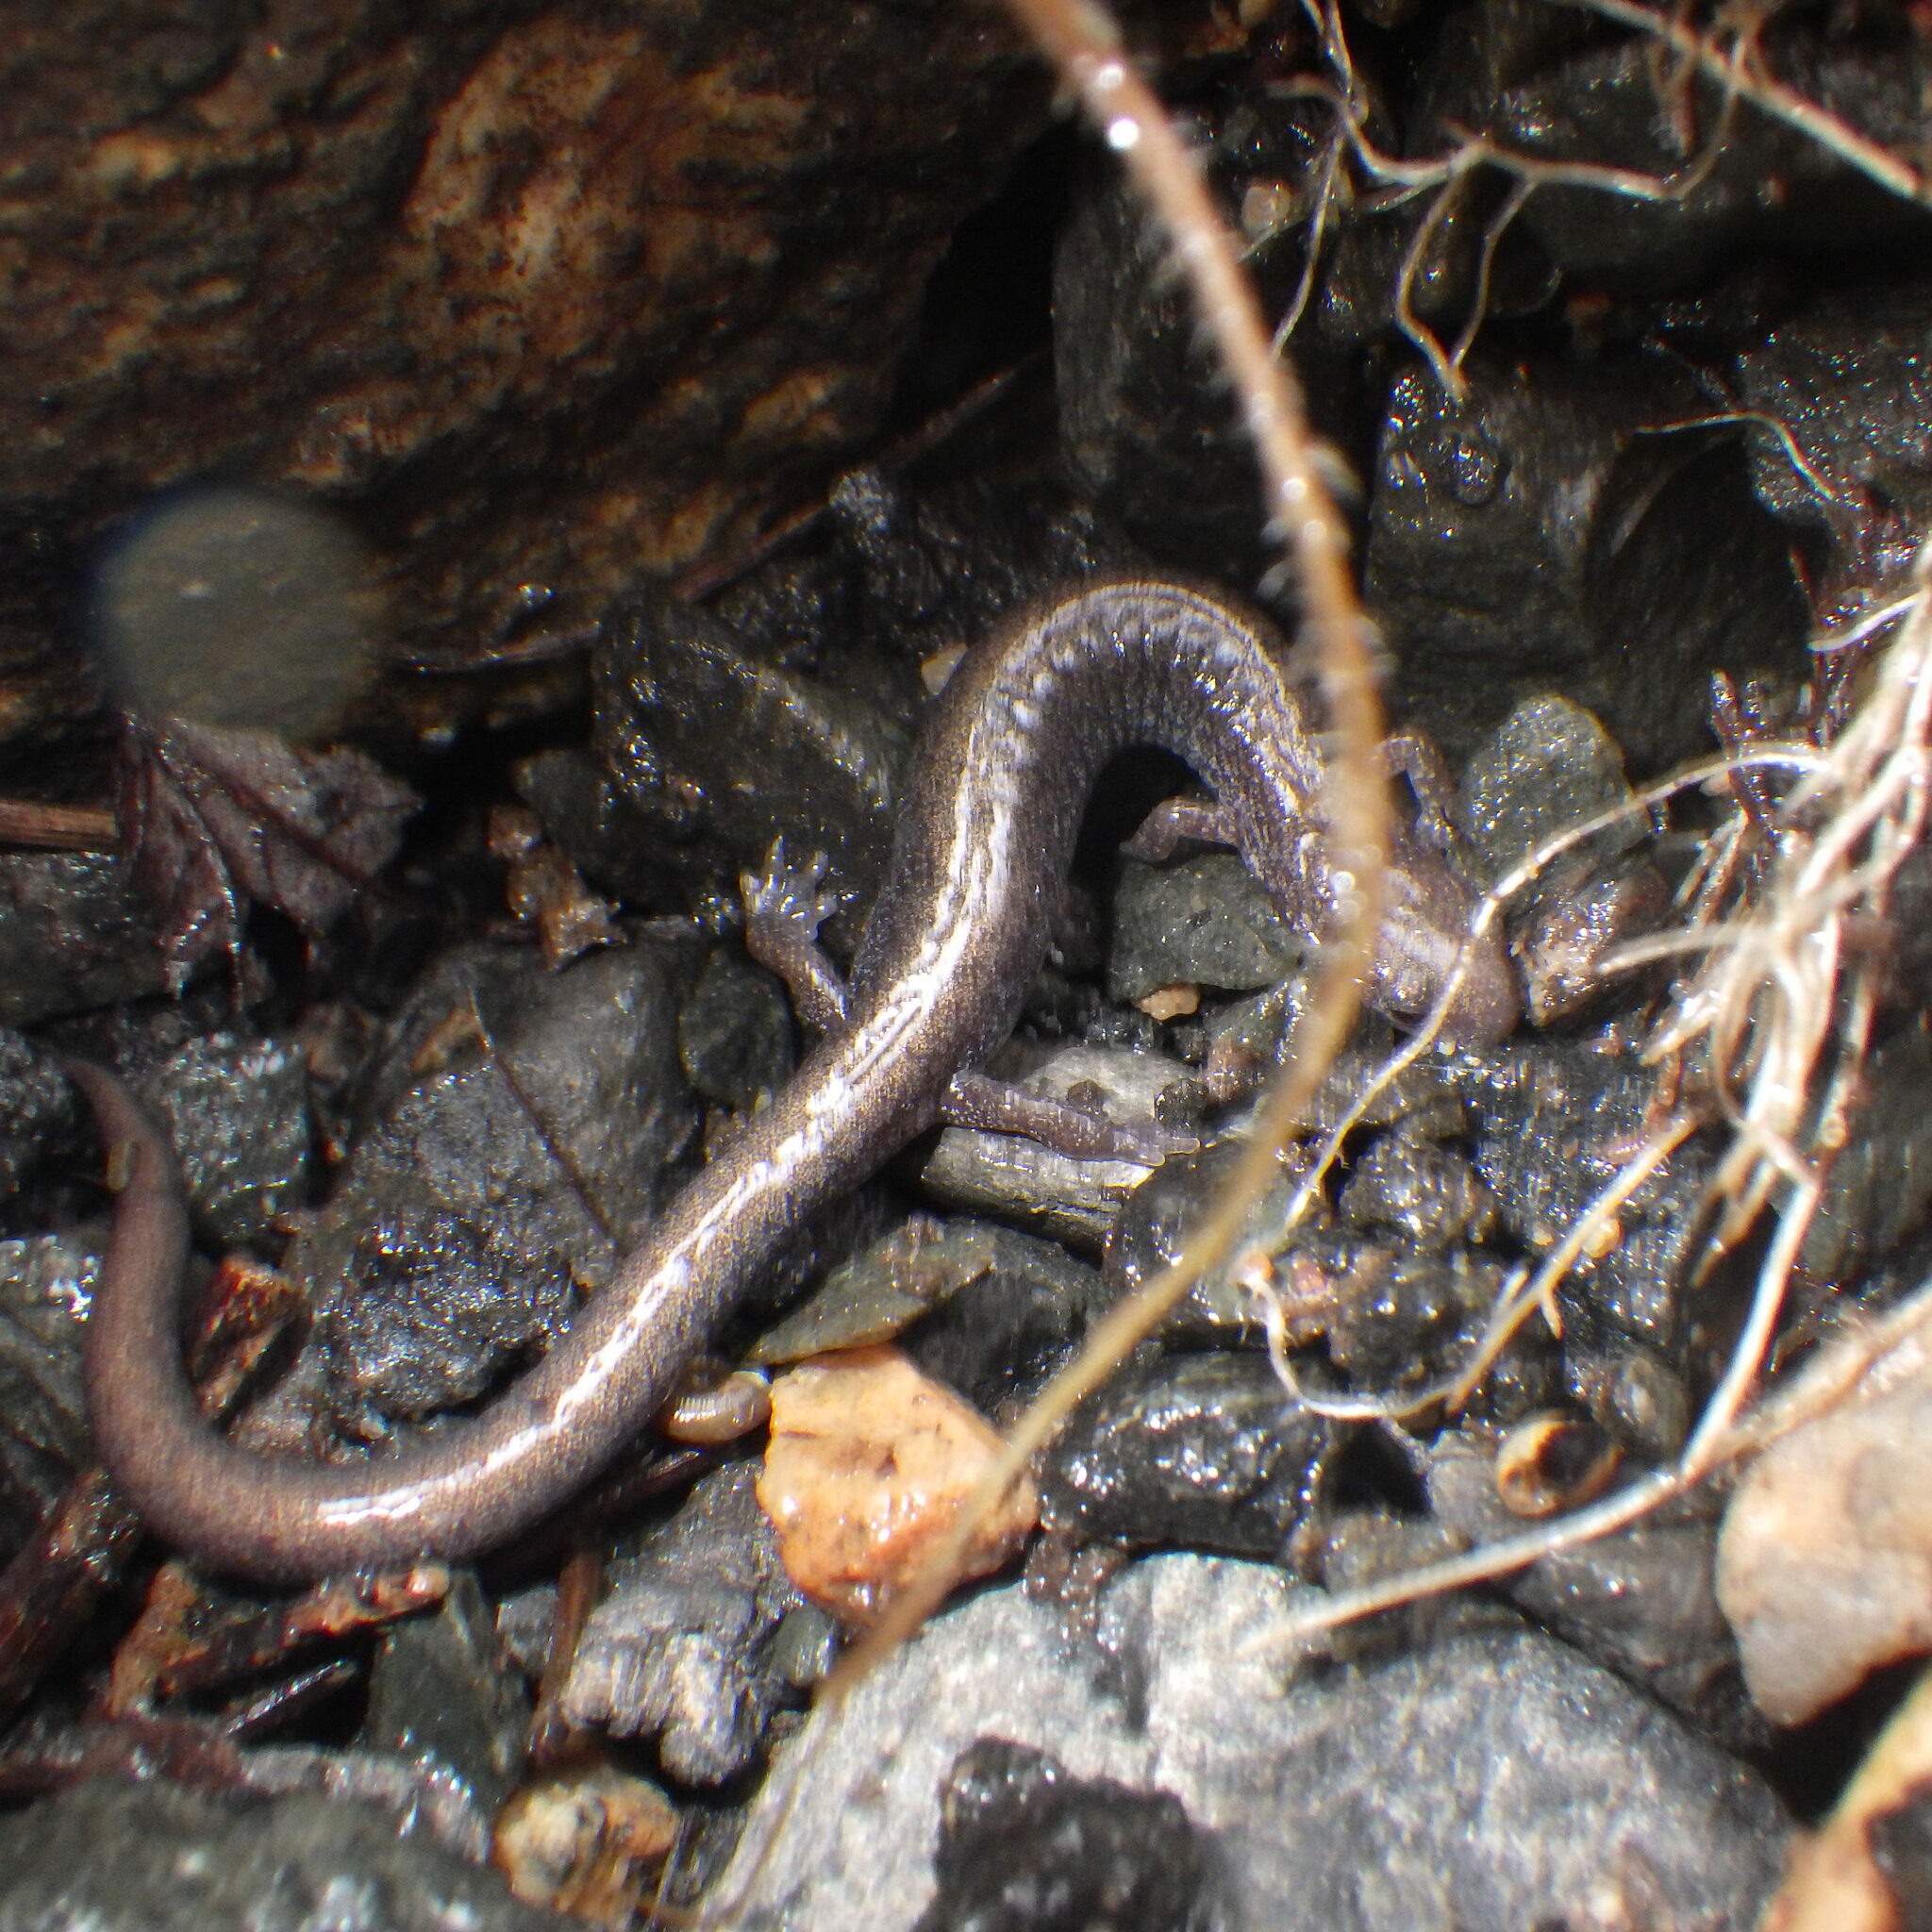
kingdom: Animalia
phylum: Chordata
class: Amphibia
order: Caudata
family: Plethodontidae
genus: Plethodon
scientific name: Plethodon cinereus
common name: Redback salamander
